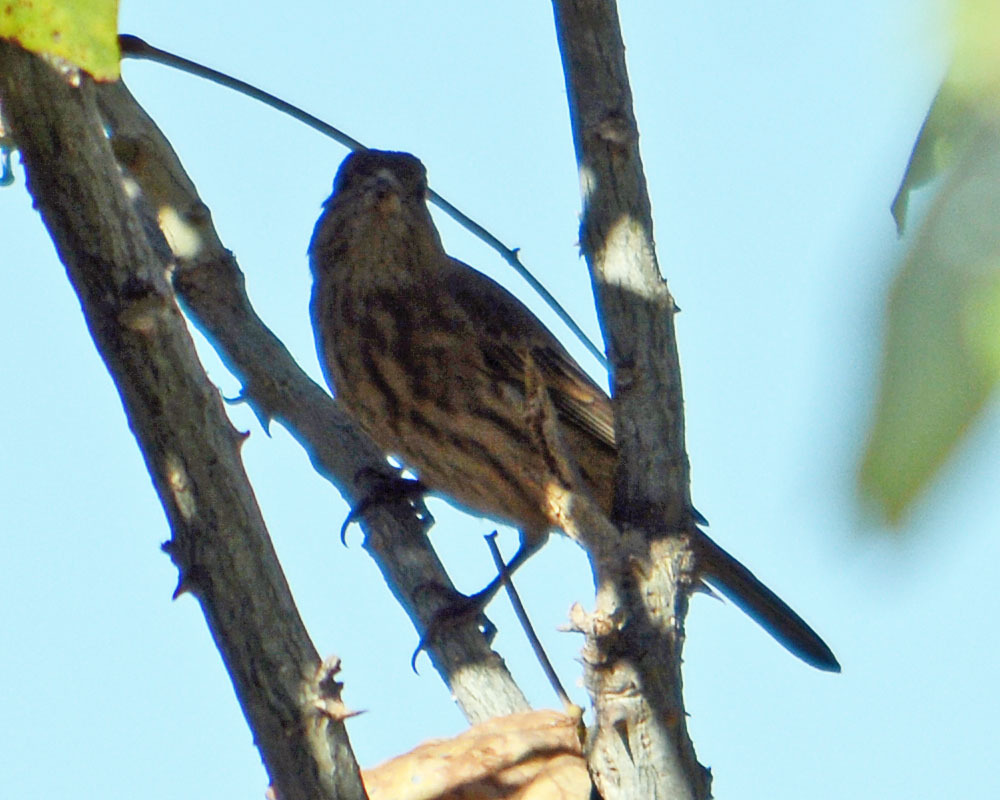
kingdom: Animalia
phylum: Chordata
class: Aves
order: Passeriformes
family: Fringillidae
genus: Haemorhous
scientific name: Haemorhous mexicanus
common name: House finch
